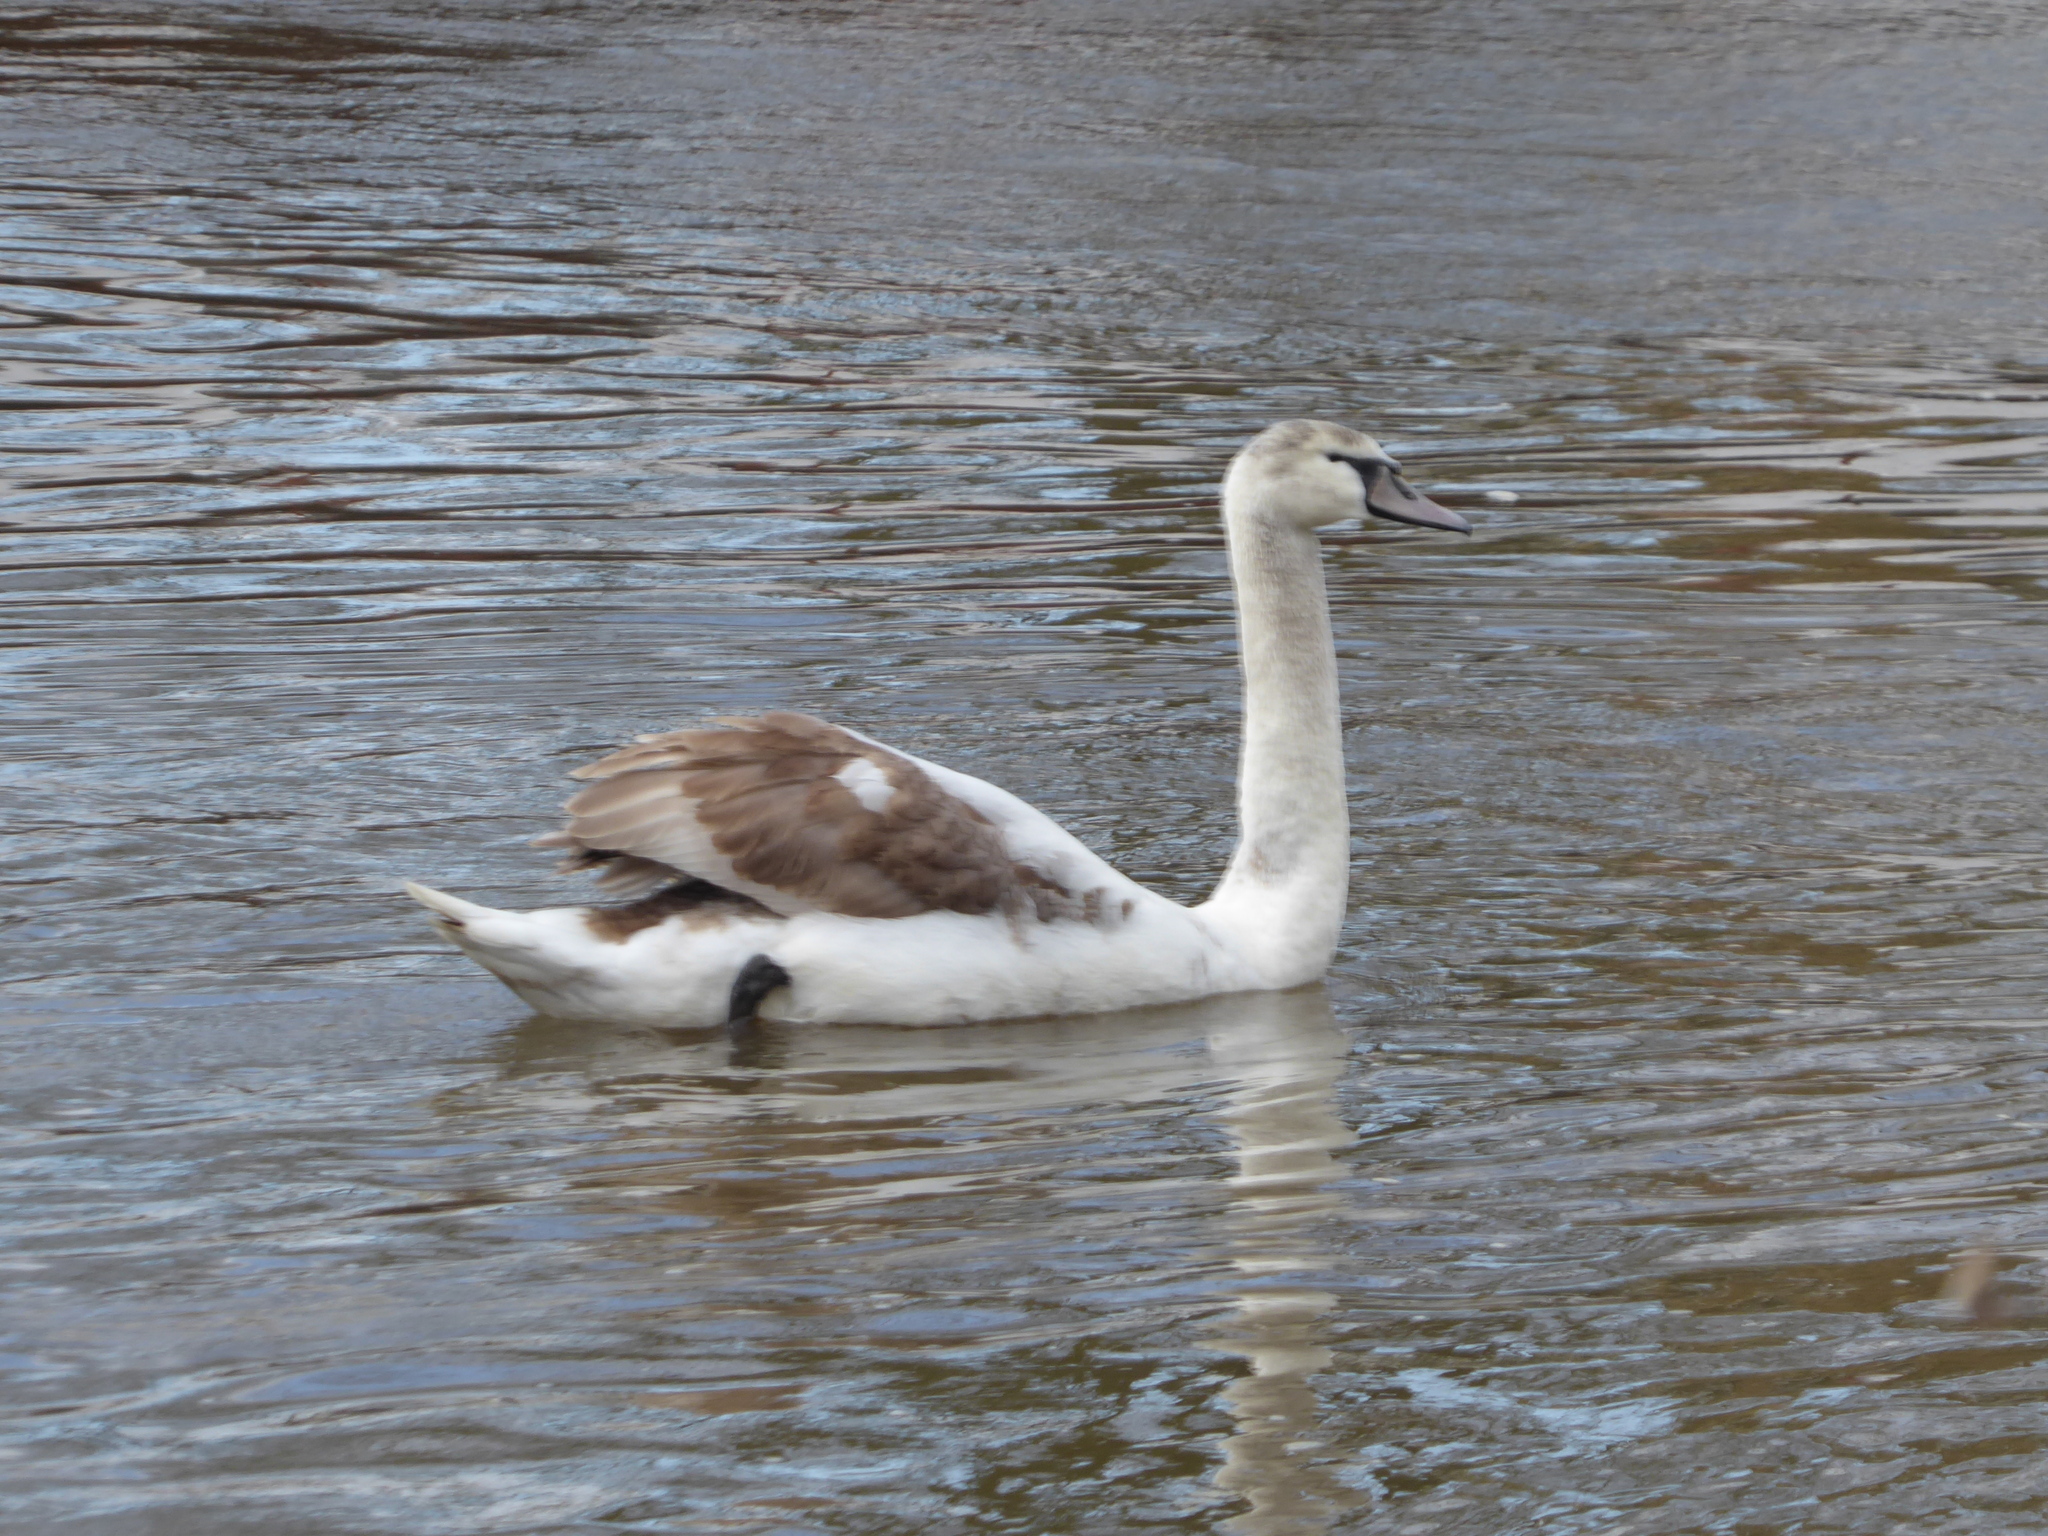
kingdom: Animalia
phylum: Chordata
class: Aves
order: Anseriformes
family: Anatidae
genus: Cygnus
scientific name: Cygnus olor
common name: Mute swan
